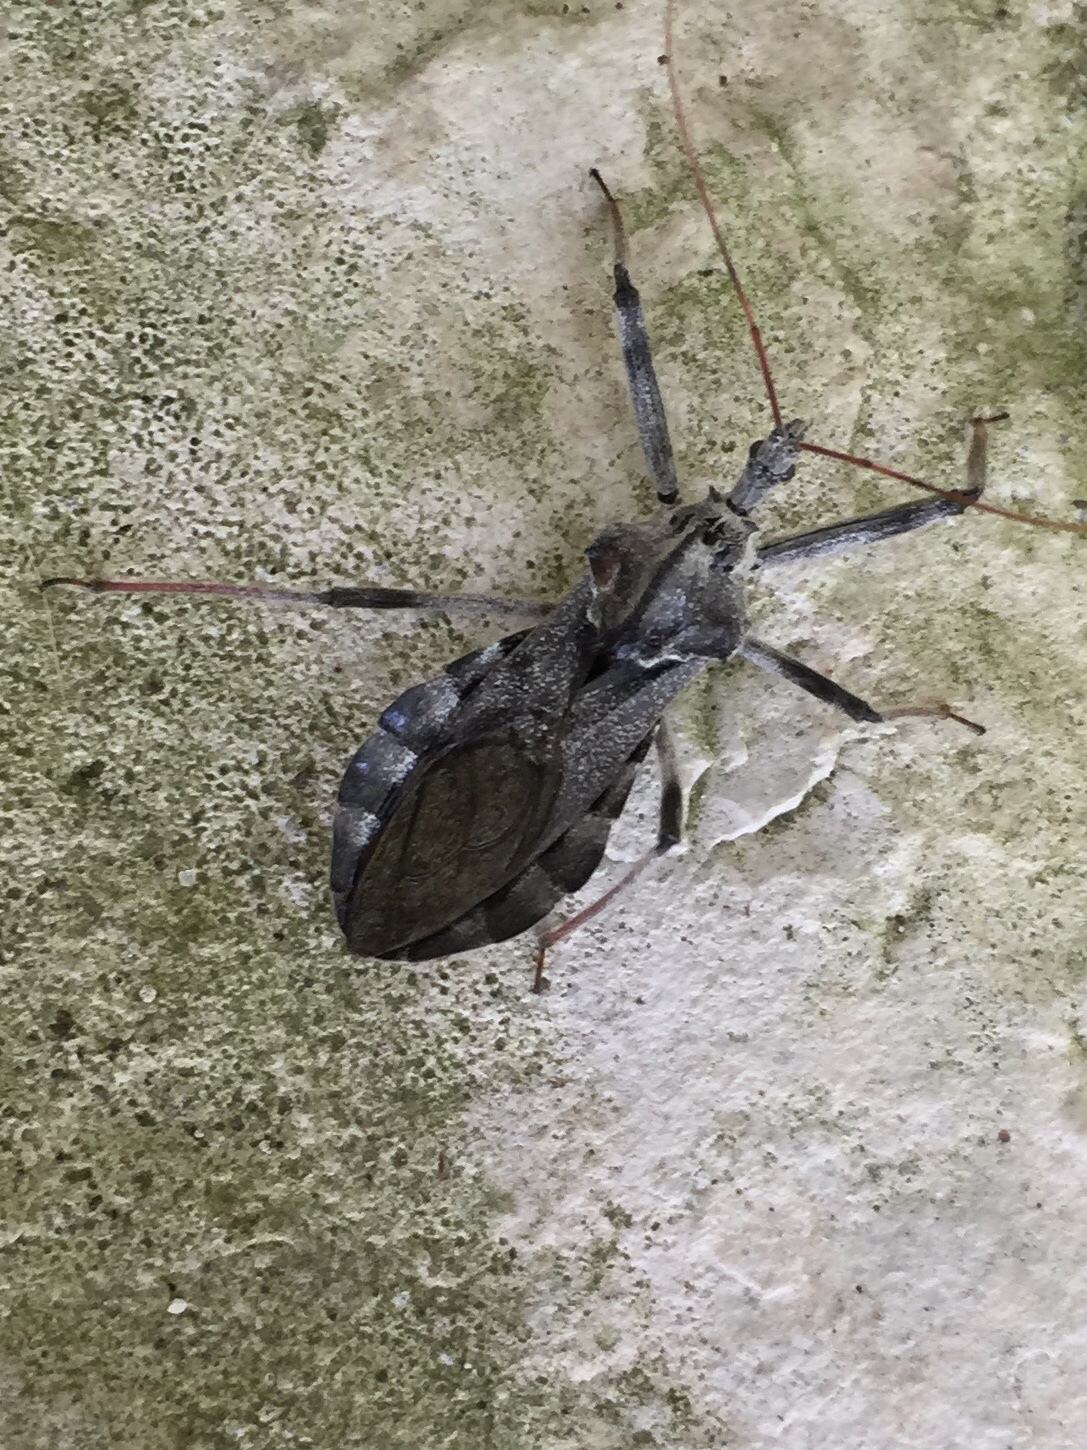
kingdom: Animalia
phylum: Arthropoda
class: Insecta
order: Hemiptera
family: Reduviidae
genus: Arilus
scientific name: Arilus cristatus
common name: North american wheel bug
